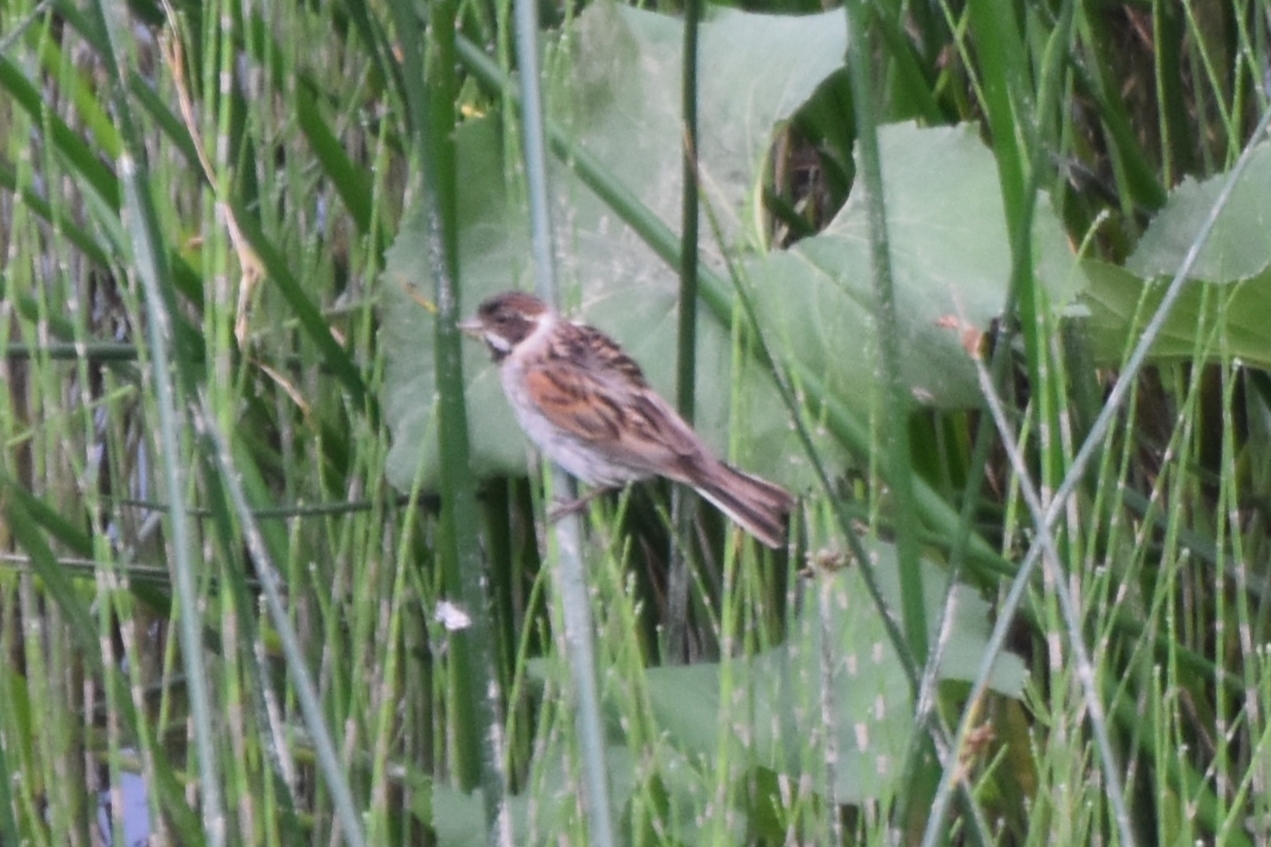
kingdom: Animalia
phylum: Chordata
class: Aves
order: Passeriformes
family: Emberizidae
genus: Emberiza
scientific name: Emberiza schoeniclus
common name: Reed bunting
